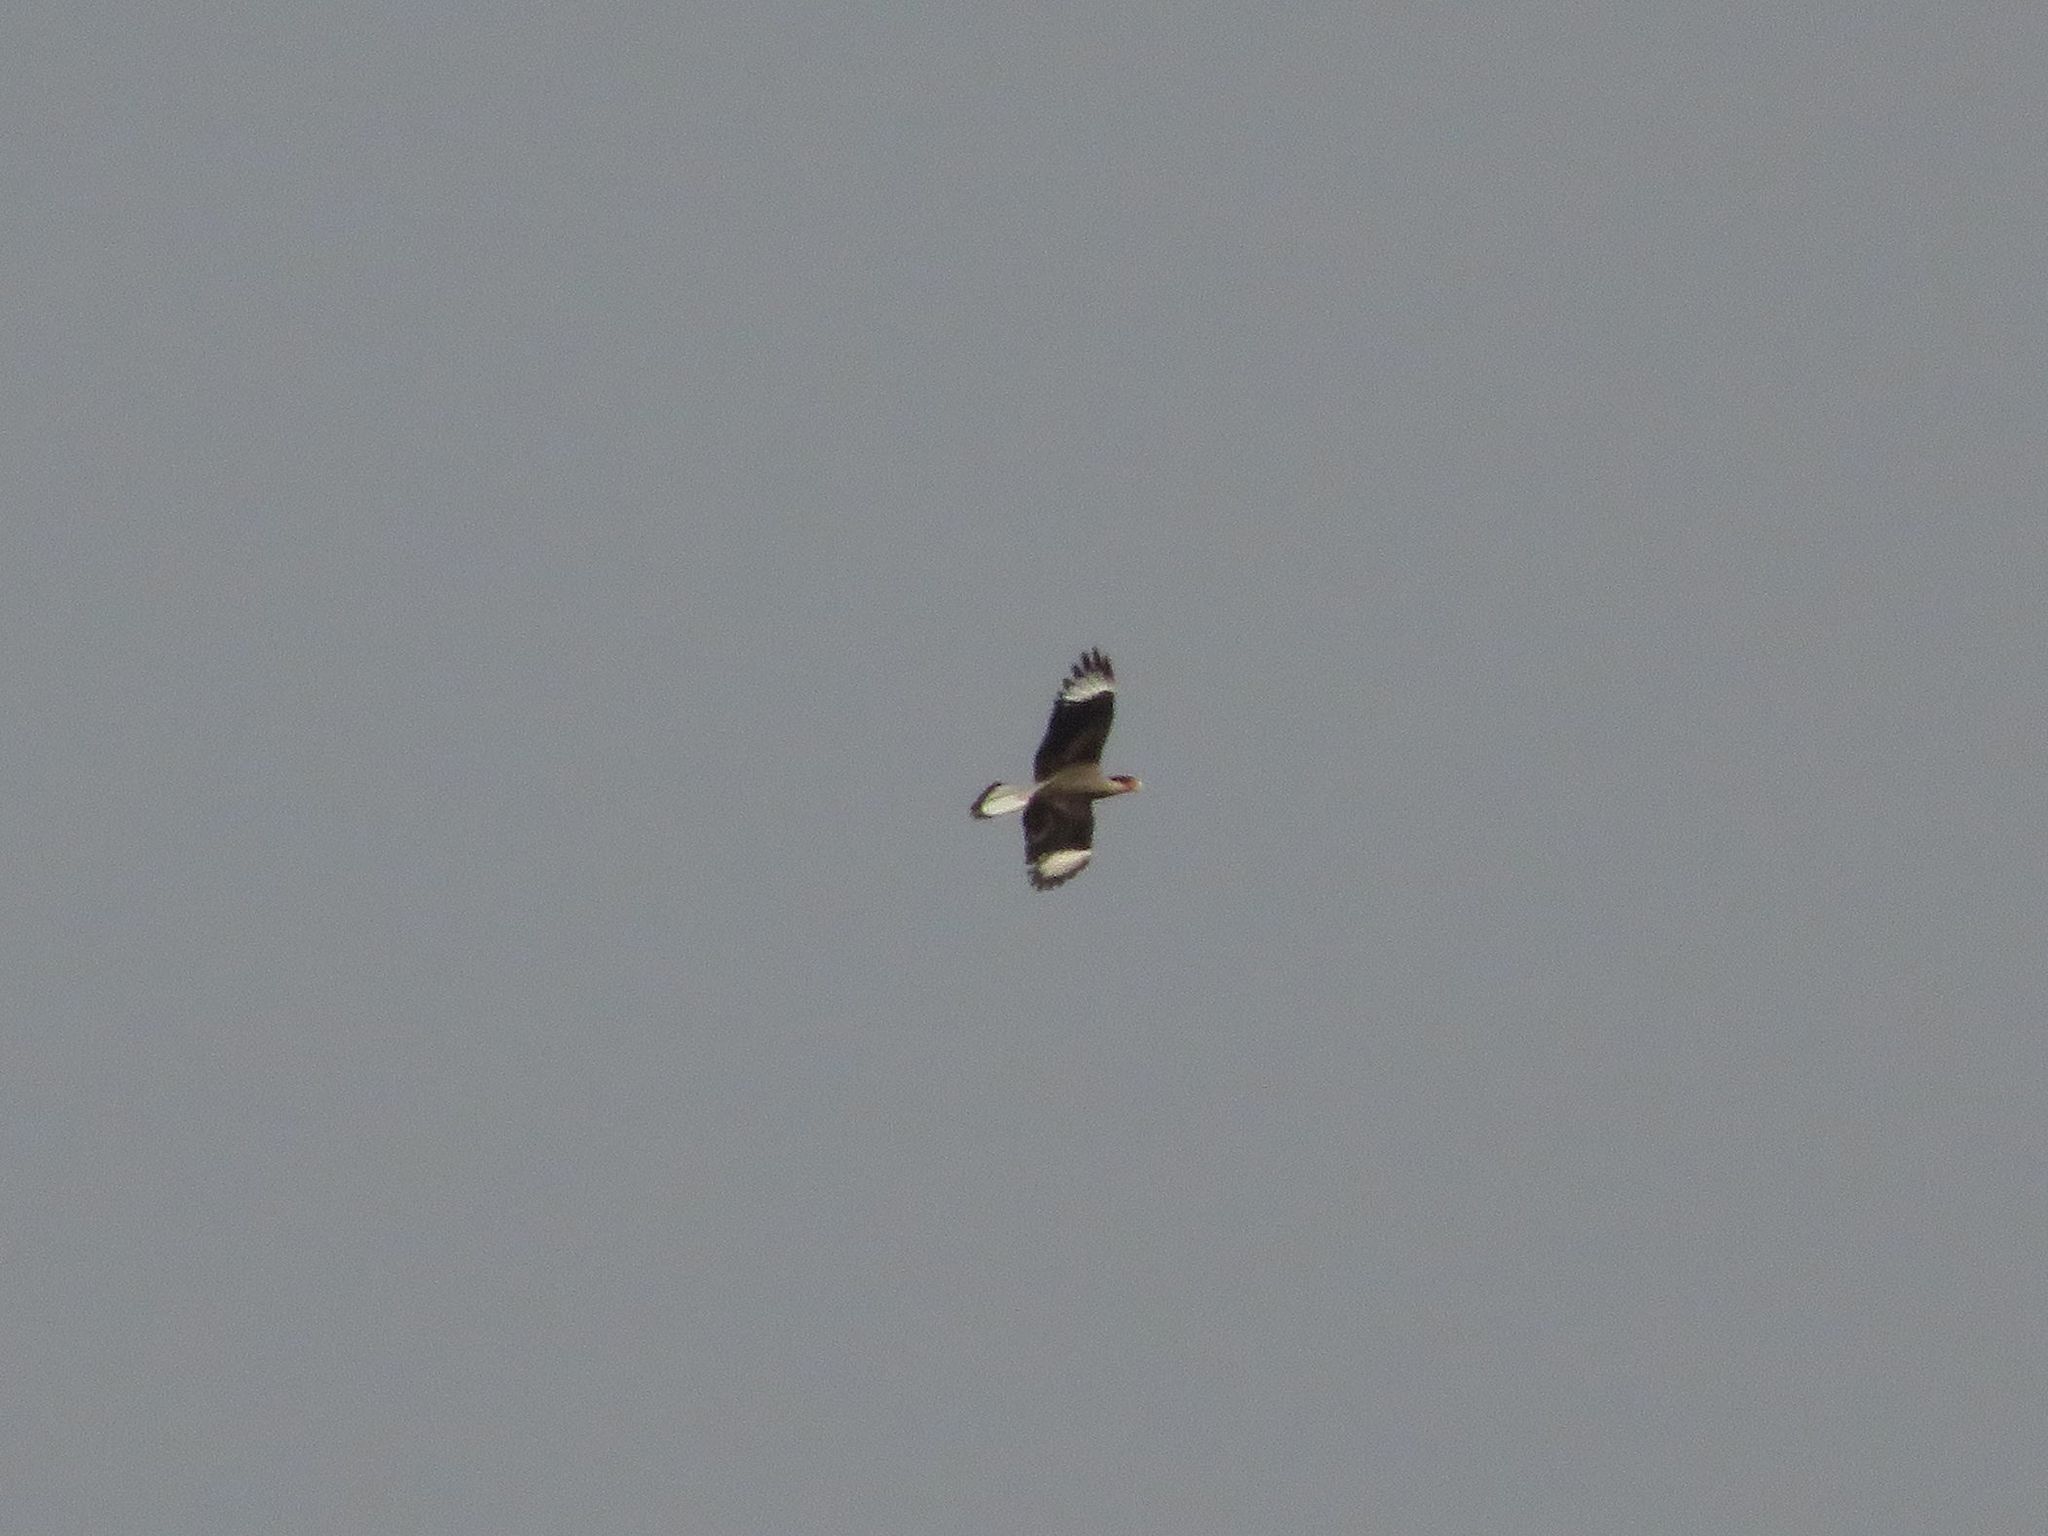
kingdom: Animalia
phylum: Chordata
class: Aves
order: Falconiformes
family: Falconidae
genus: Caracara
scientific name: Caracara plancus
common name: Southern caracara
